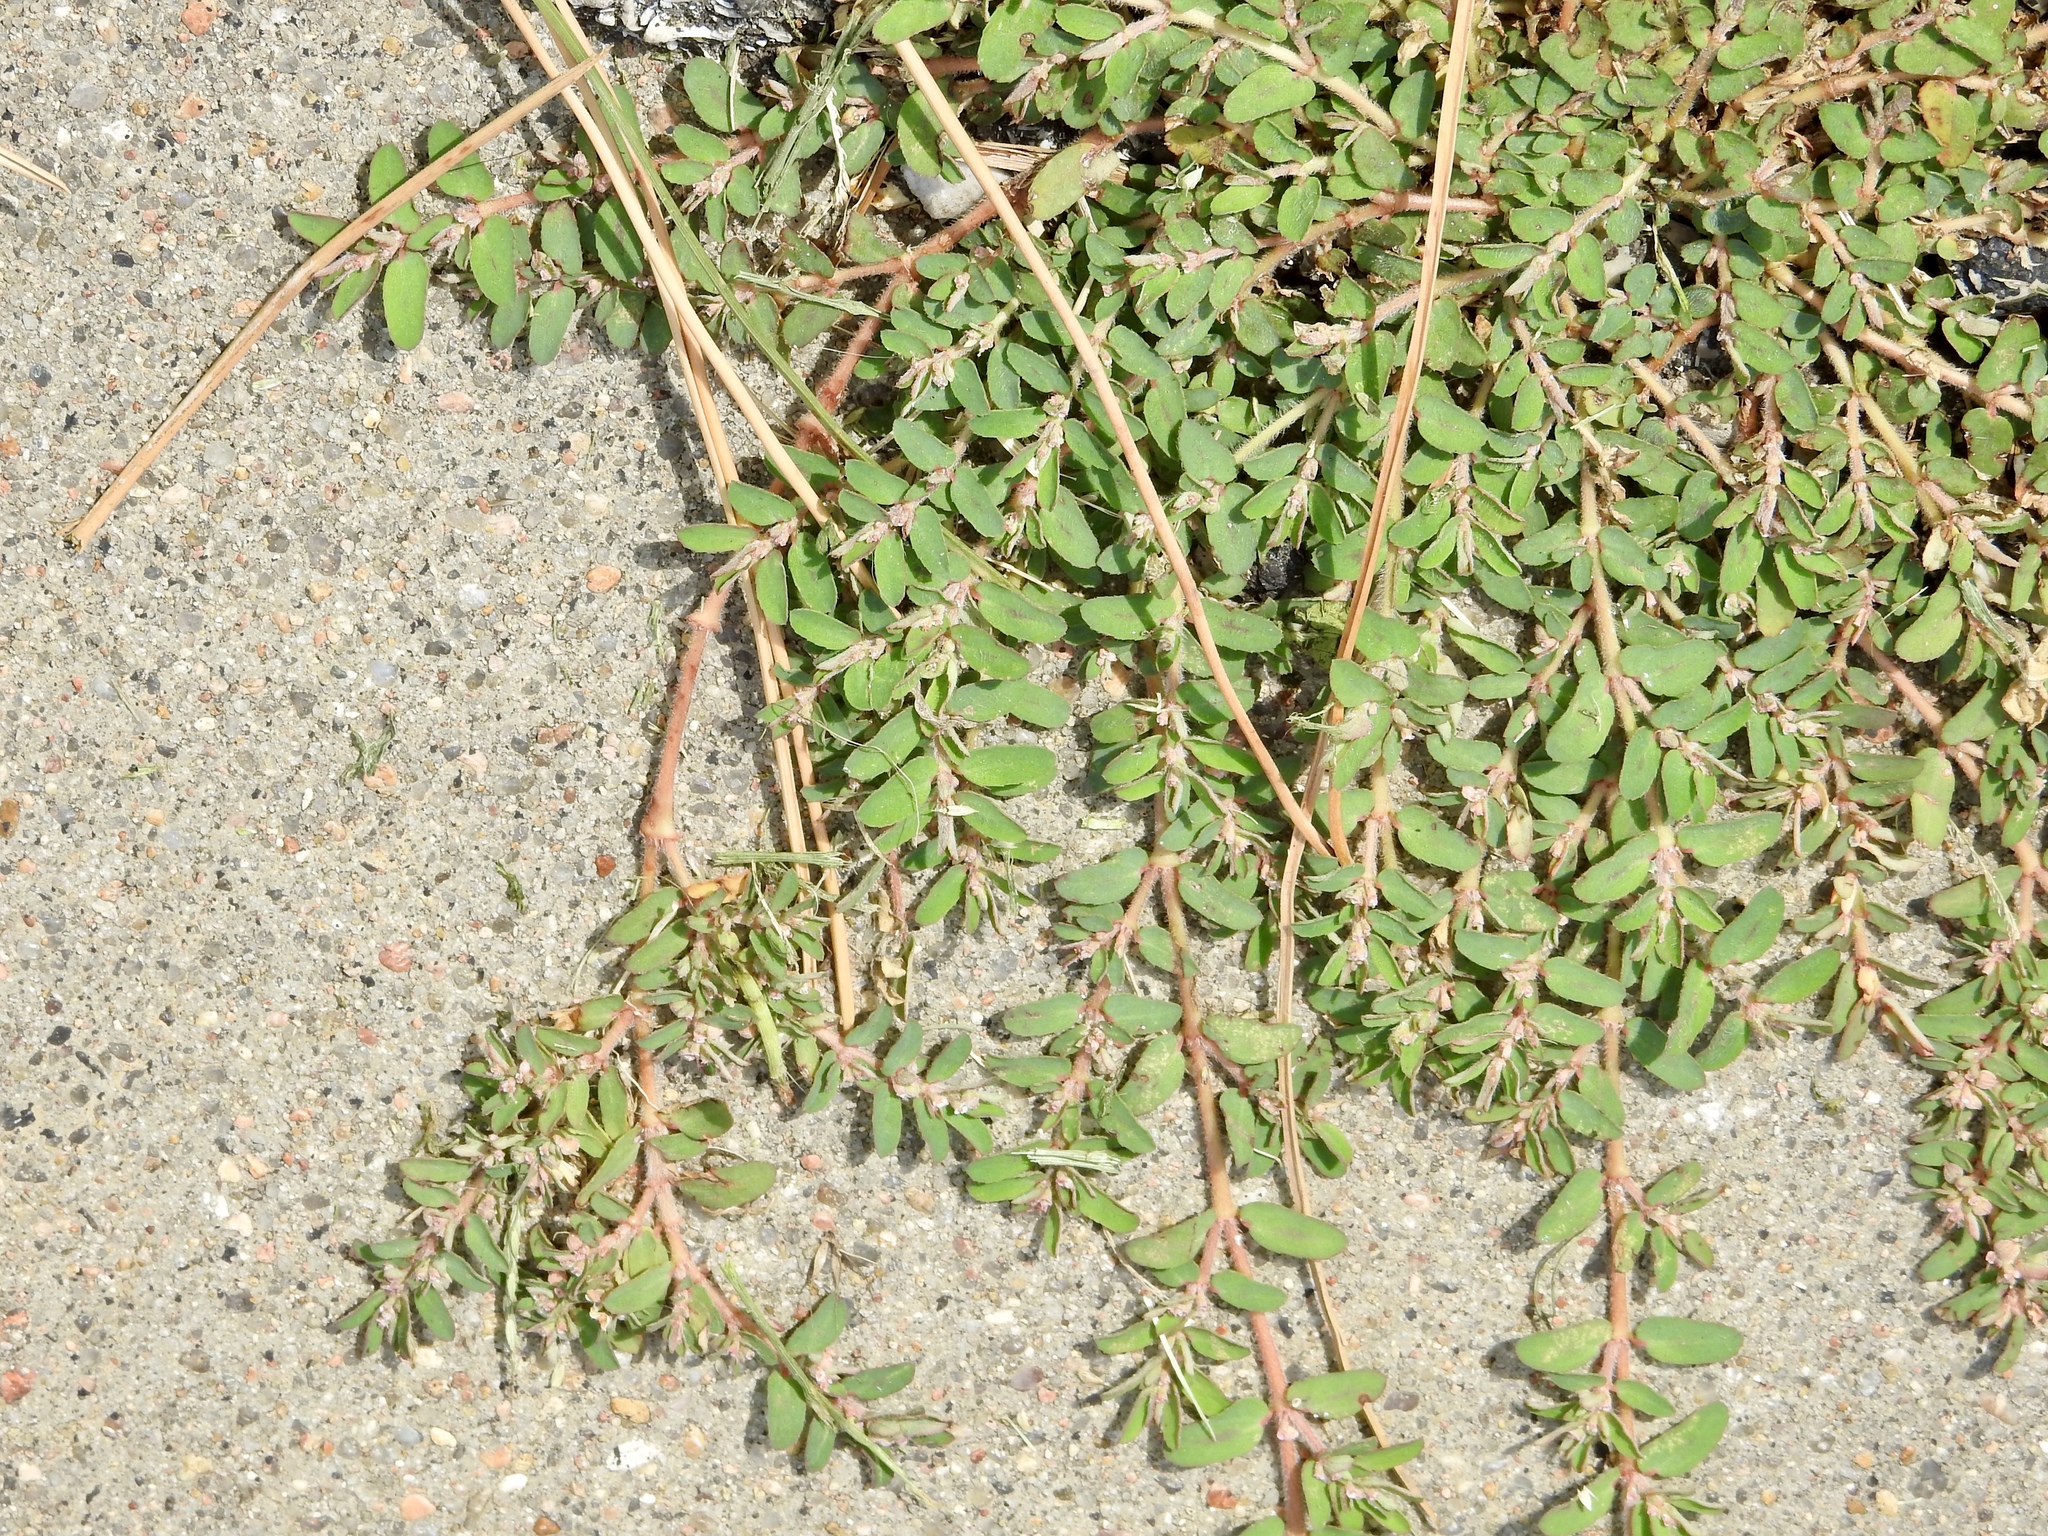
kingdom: Plantae
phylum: Tracheophyta
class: Magnoliopsida
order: Malpighiales
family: Euphorbiaceae
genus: Euphorbia
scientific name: Euphorbia maculata
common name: Spotted spurge
